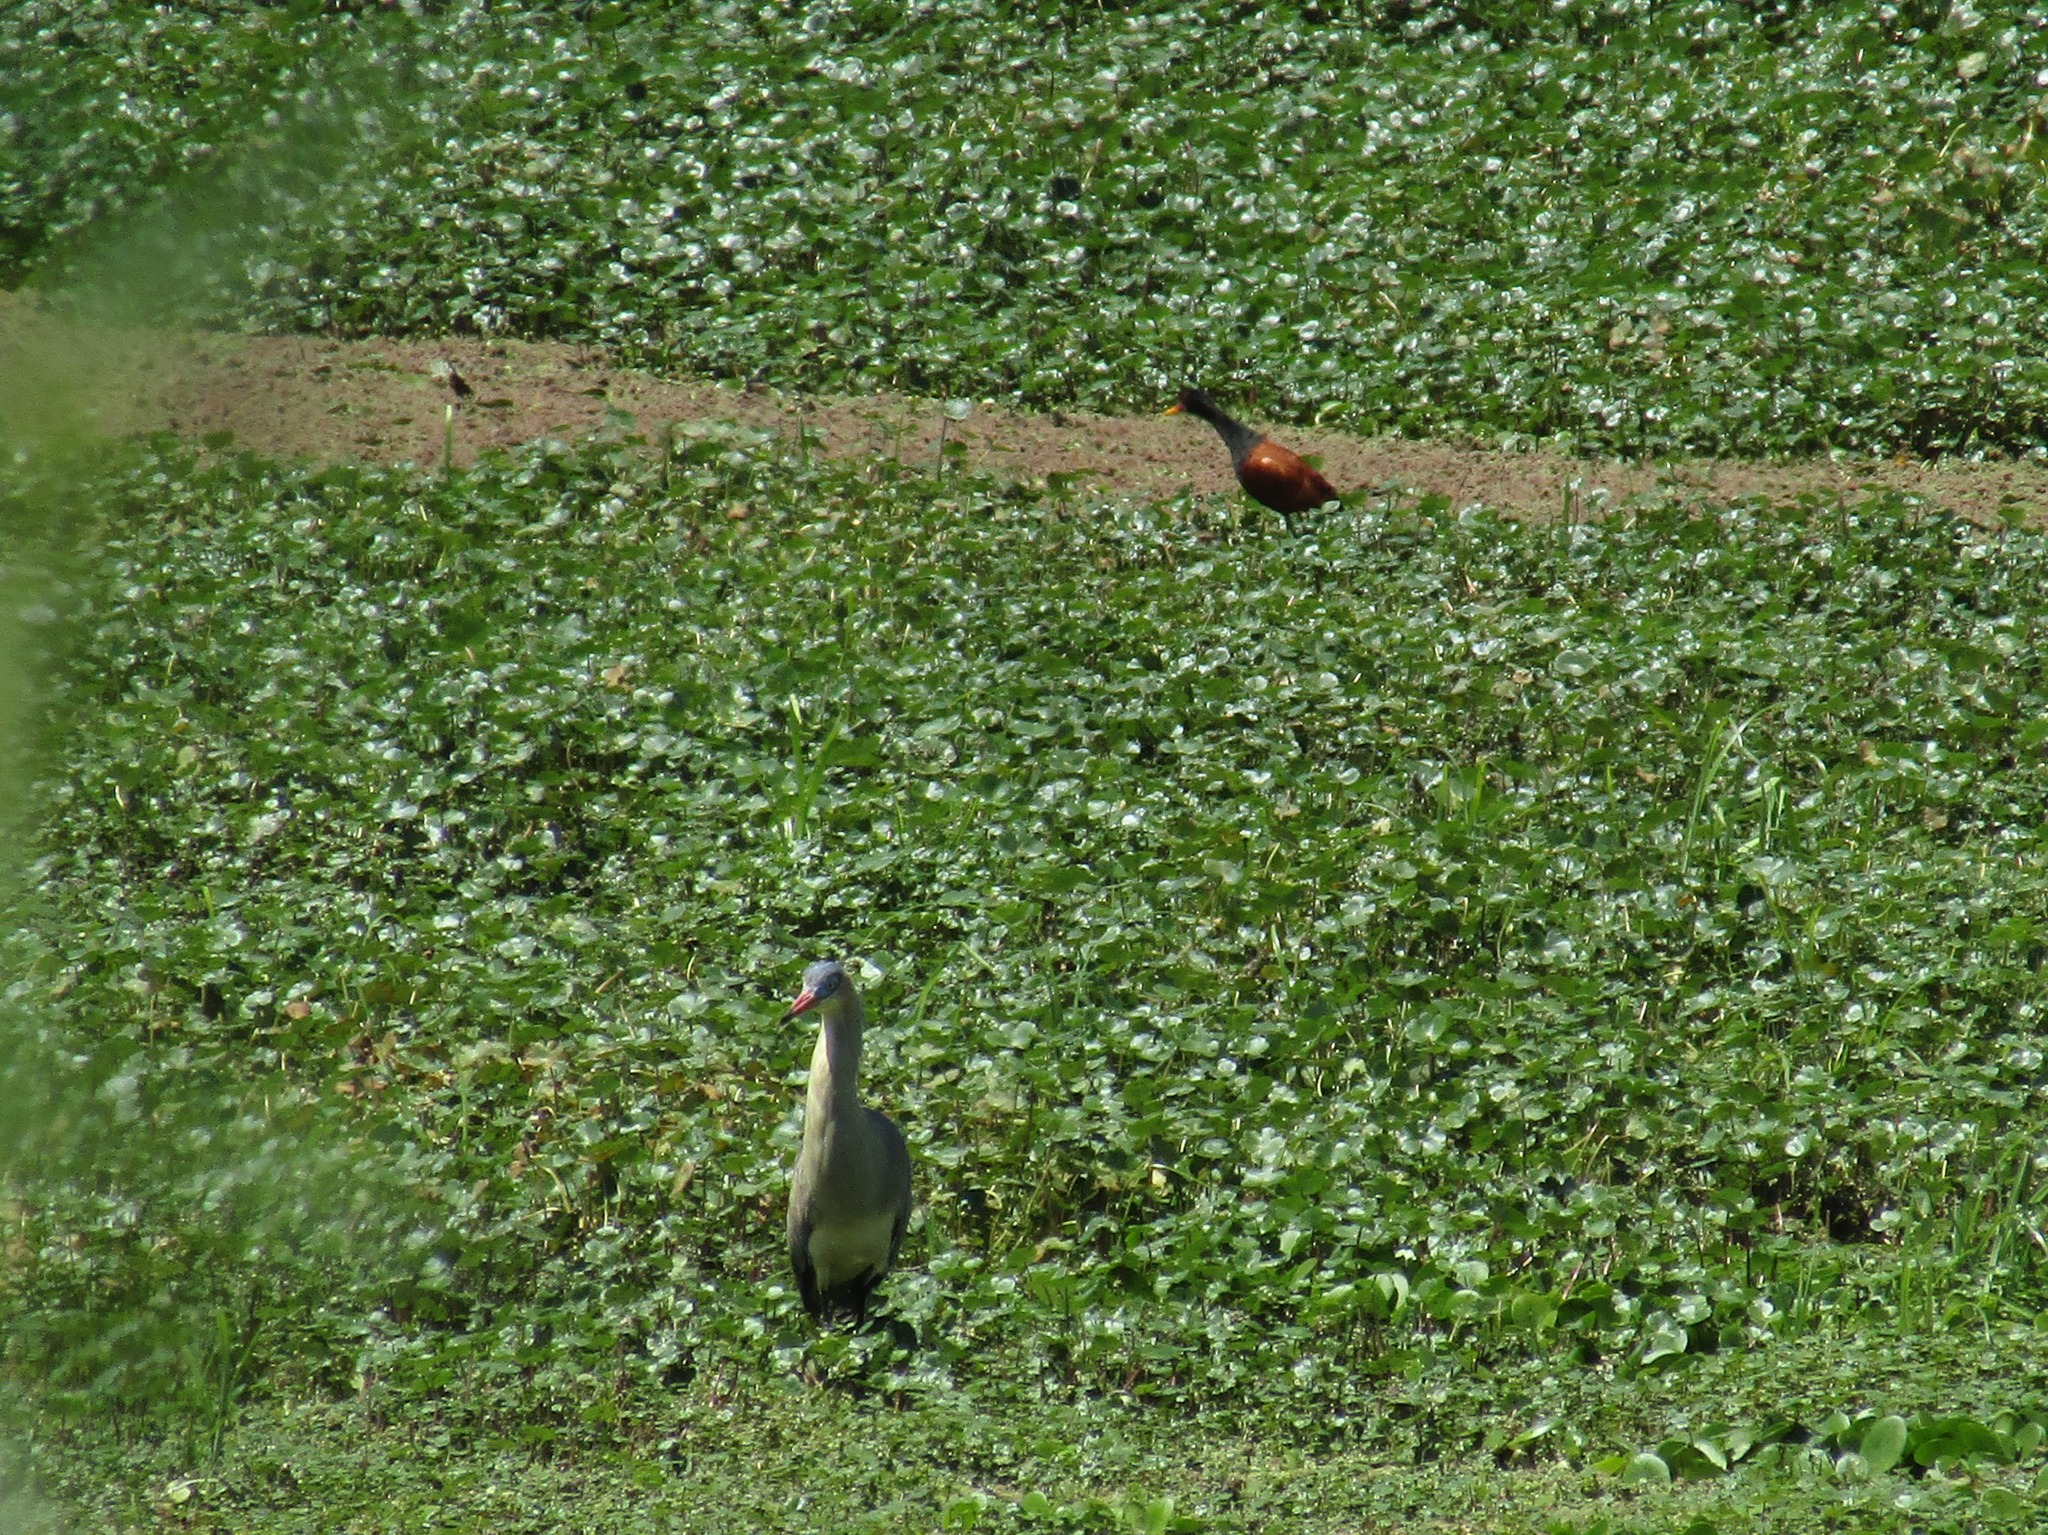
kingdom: Animalia
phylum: Chordata
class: Aves
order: Pelecaniformes
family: Ardeidae
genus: Syrigma
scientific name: Syrigma sibilatrix
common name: Whistling heron
